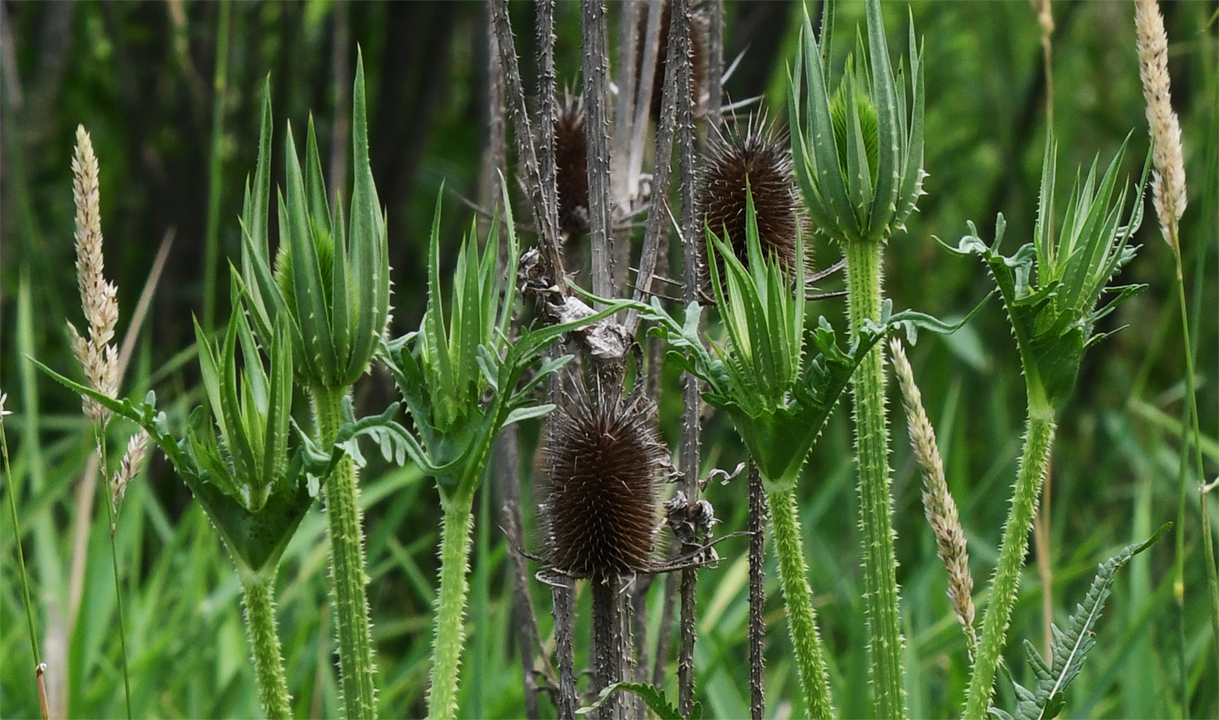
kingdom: Plantae
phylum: Tracheophyta
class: Magnoliopsida
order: Dipsacales
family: Caprifoliaceae
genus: Dipsacus
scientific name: Dipsacus laciniatus
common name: Cut-leaved teasel
